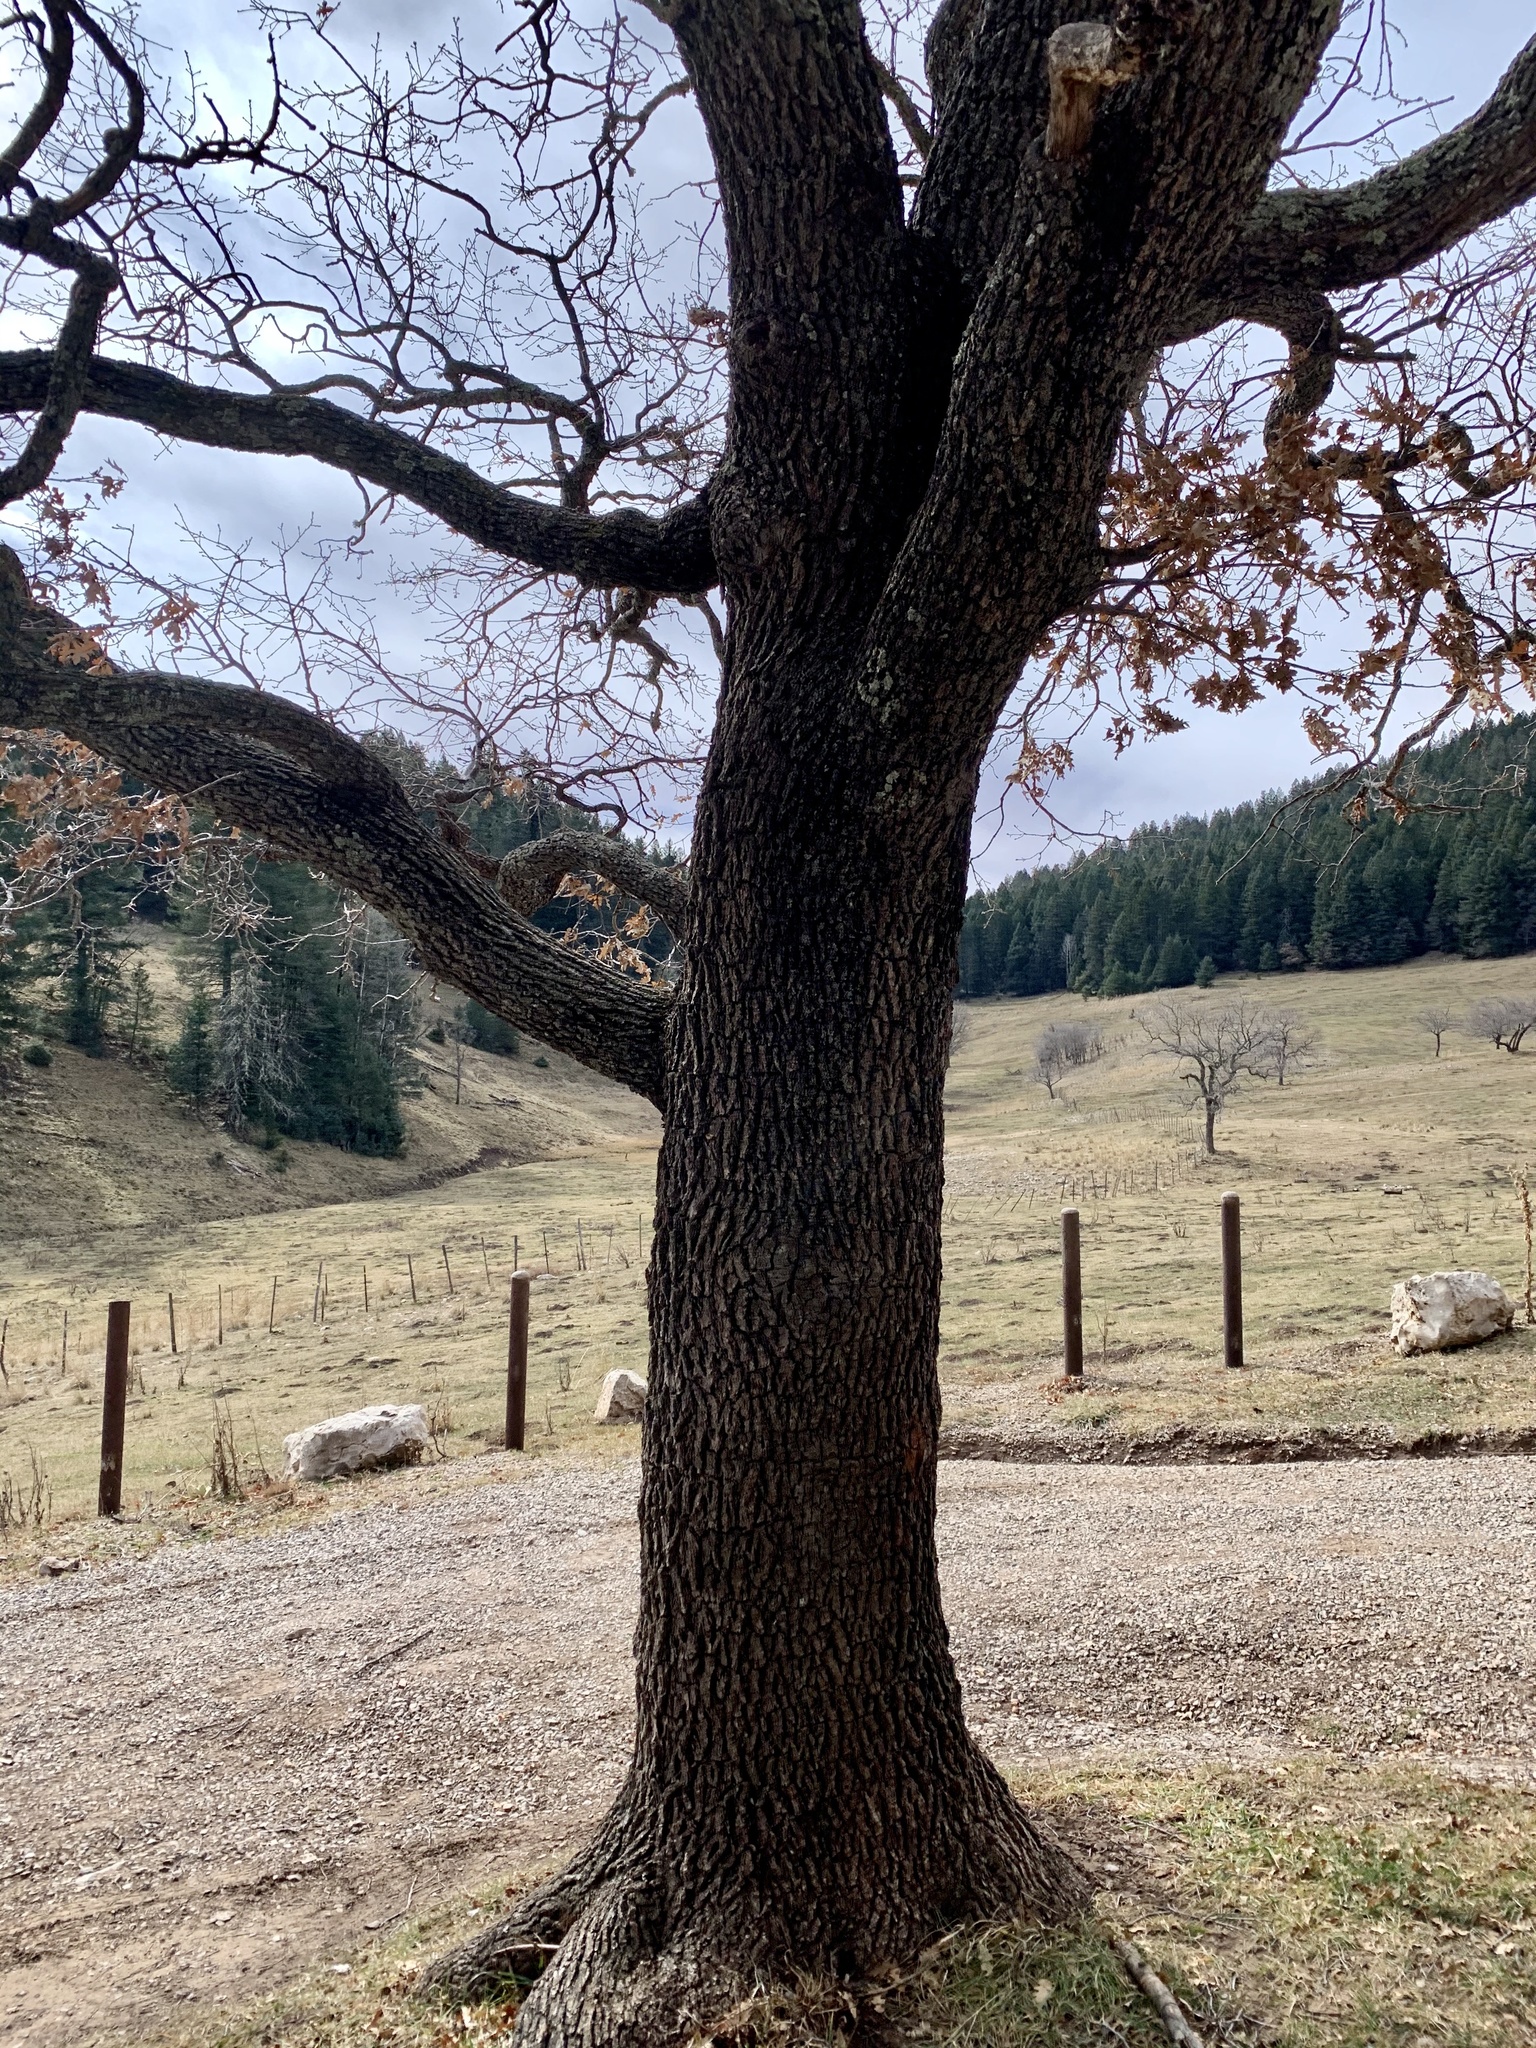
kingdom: Plantae
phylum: Tracheophyta
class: Magnoliopsida
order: Fagales
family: Fagaceae
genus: Quercus
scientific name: Quercus gambelii
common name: Gambel oak
